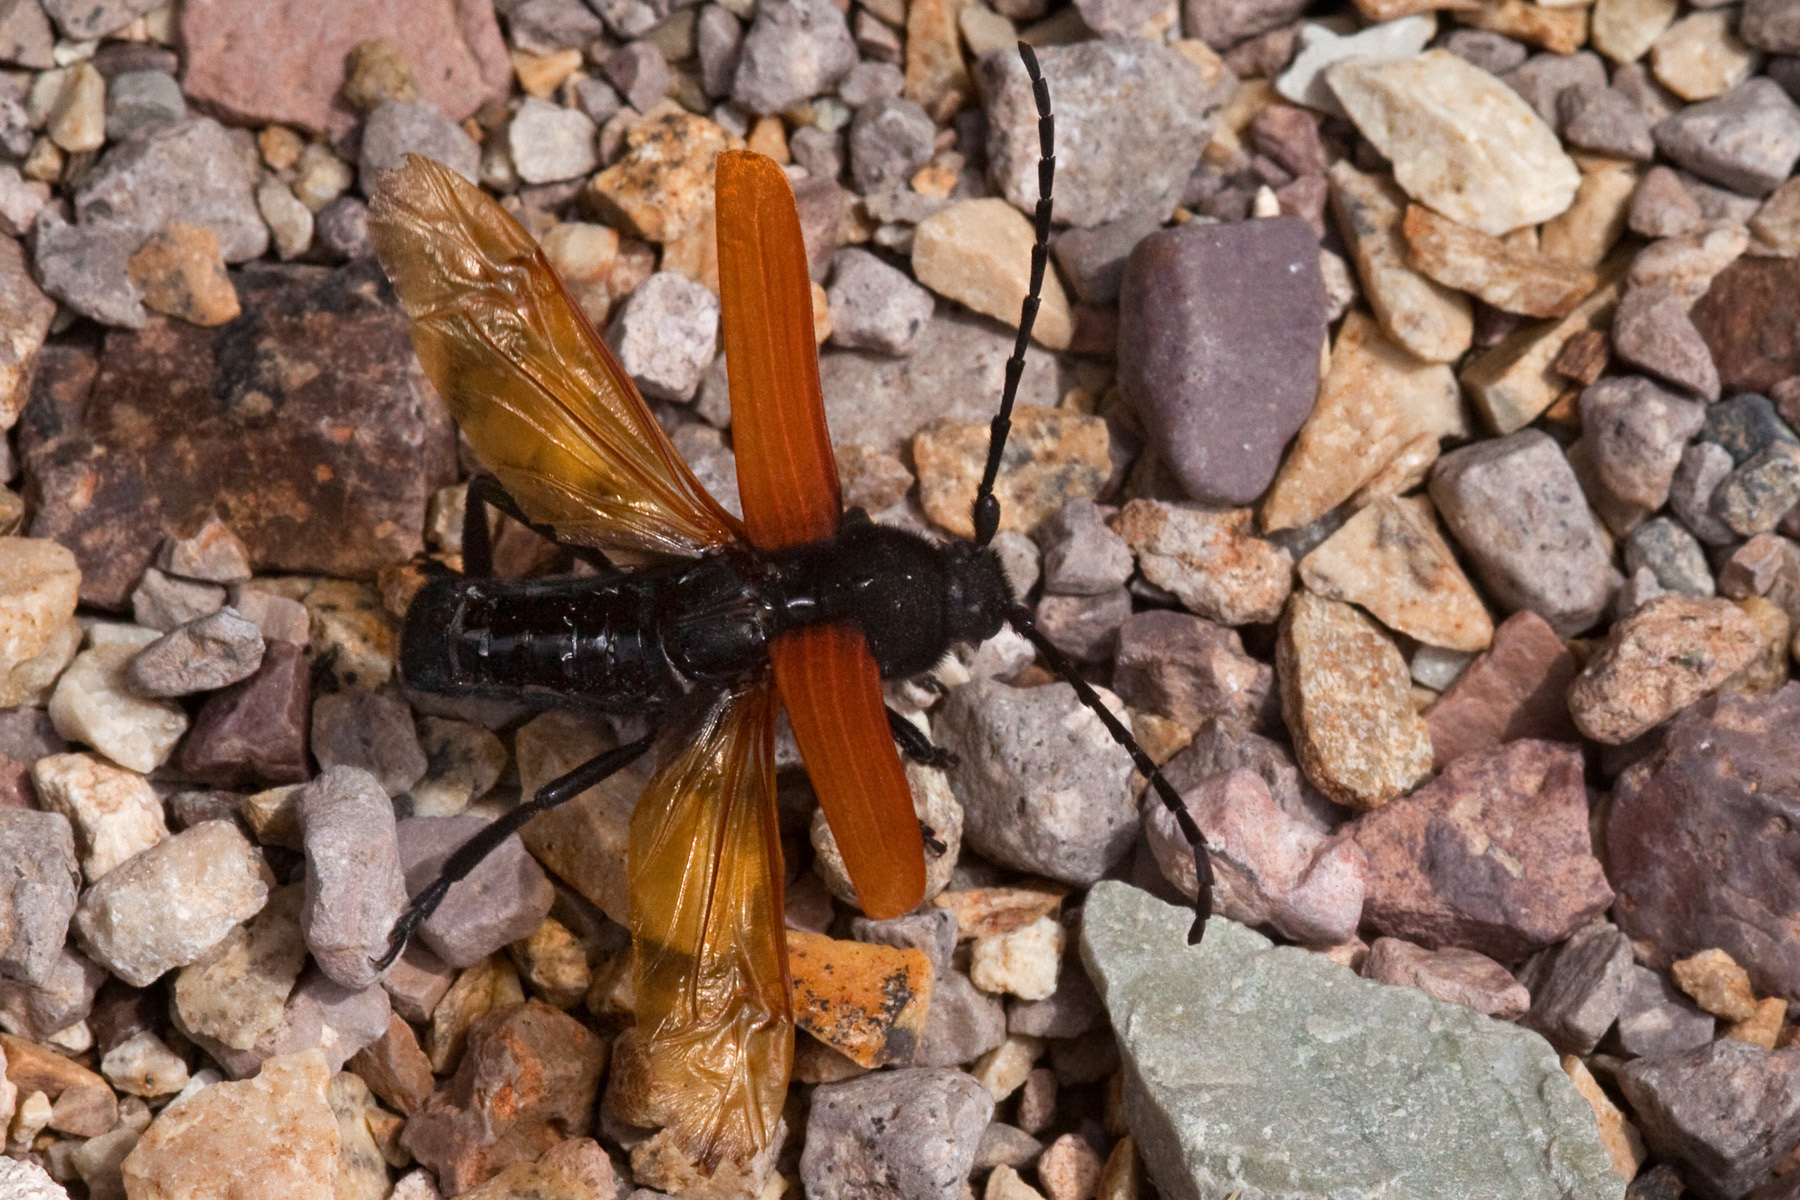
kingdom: Animalia
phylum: Arthropoda
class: Insecta
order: Coleoptera
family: Cerambycidae
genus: Tragidion
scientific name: Tragidion densiventre
